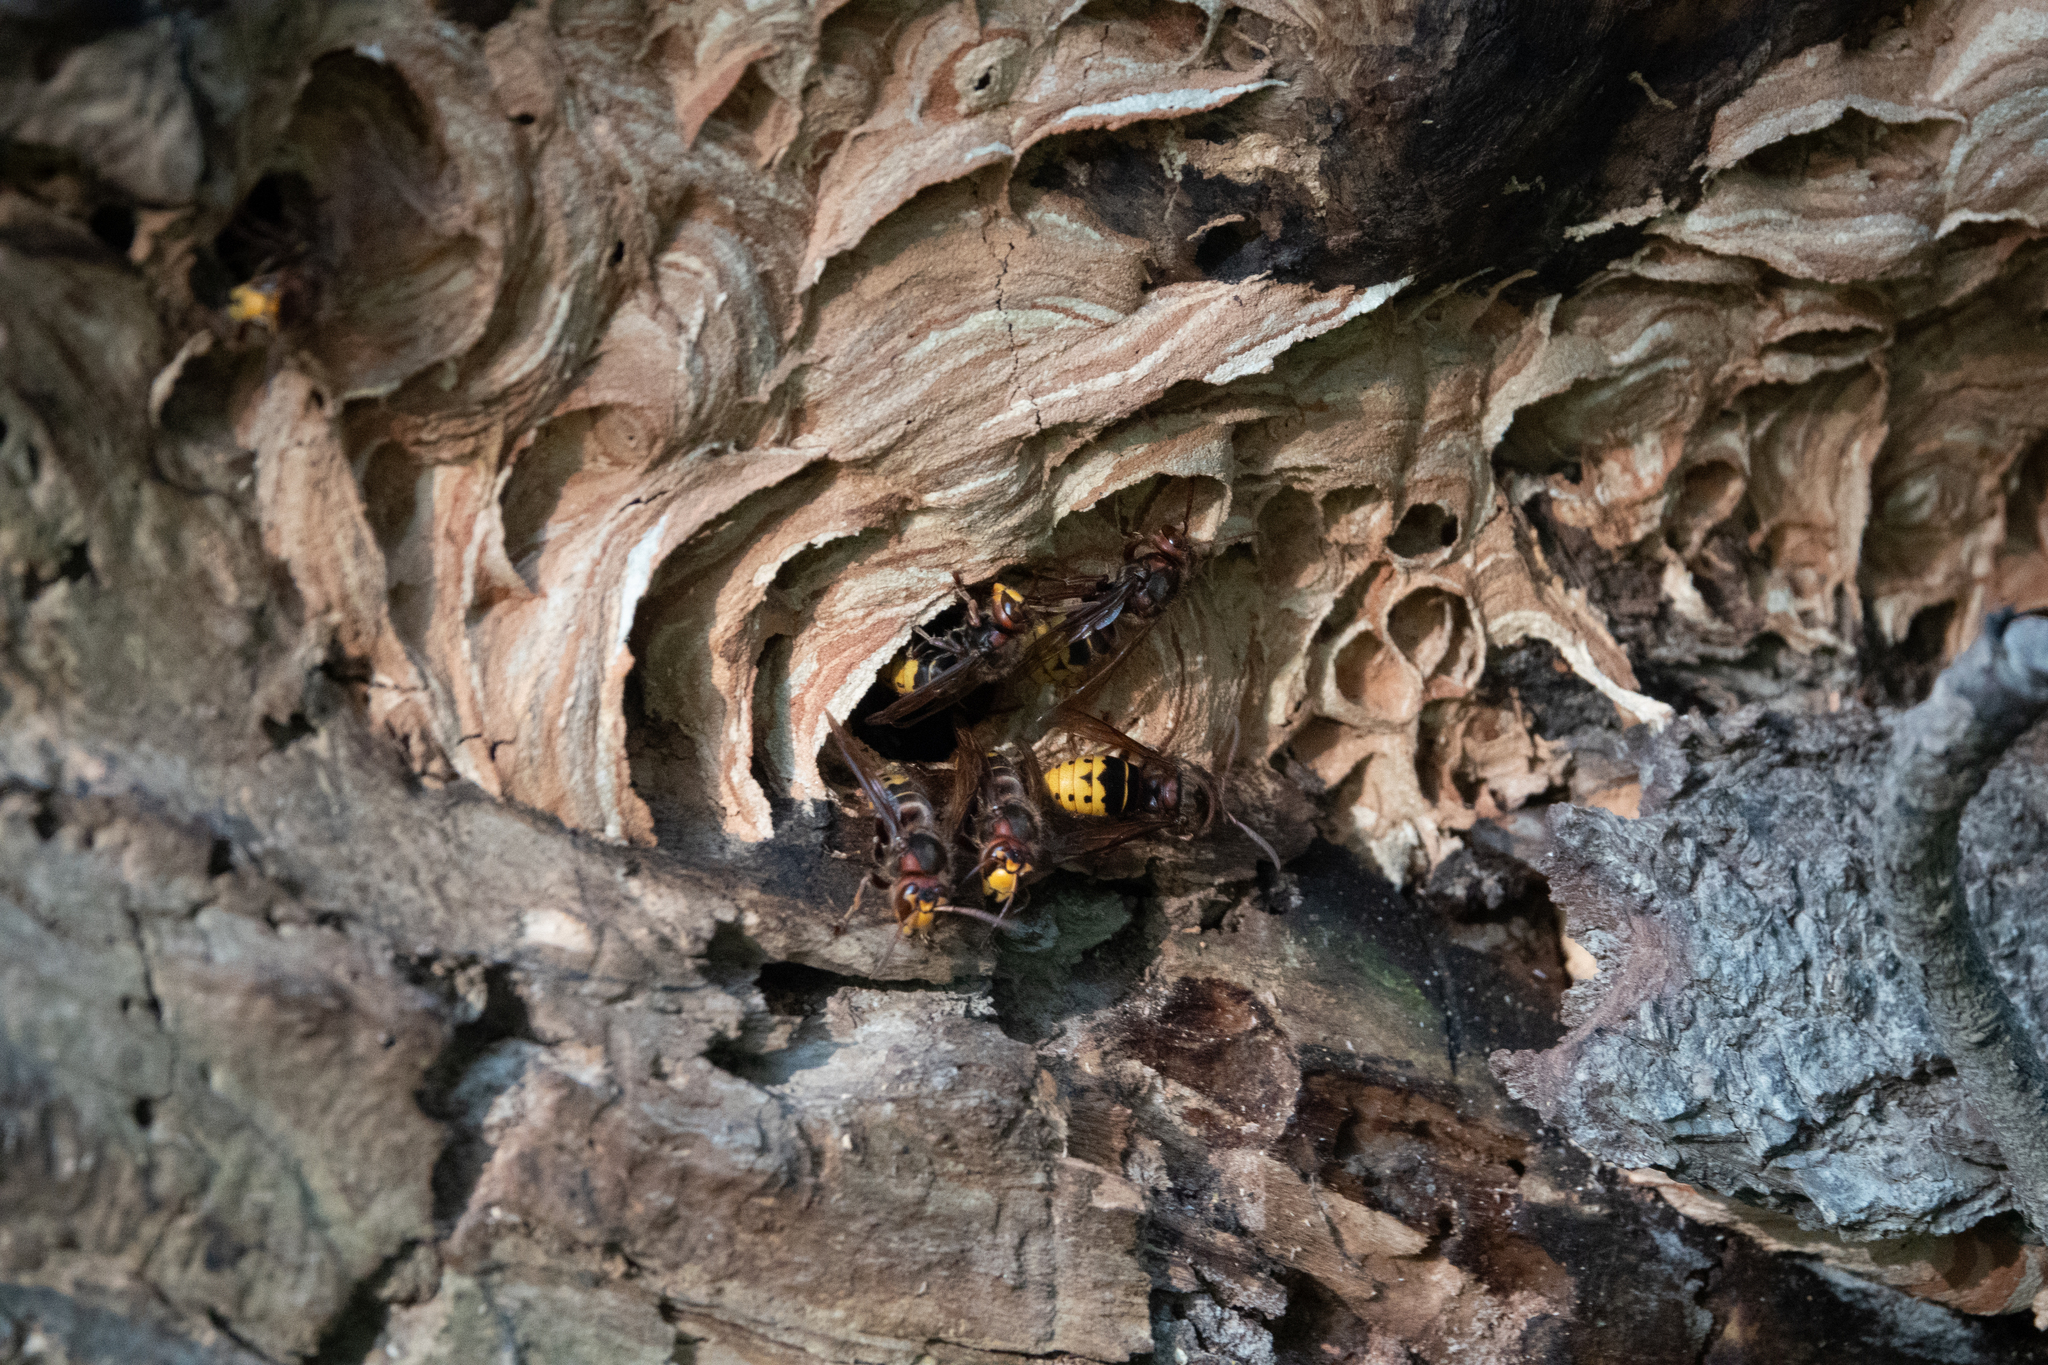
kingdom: Animalia
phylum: Arthropoda
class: Insecta
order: Hymenoptera
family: Vespidae
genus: Vespa
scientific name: Vespa crabro
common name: Hornet
